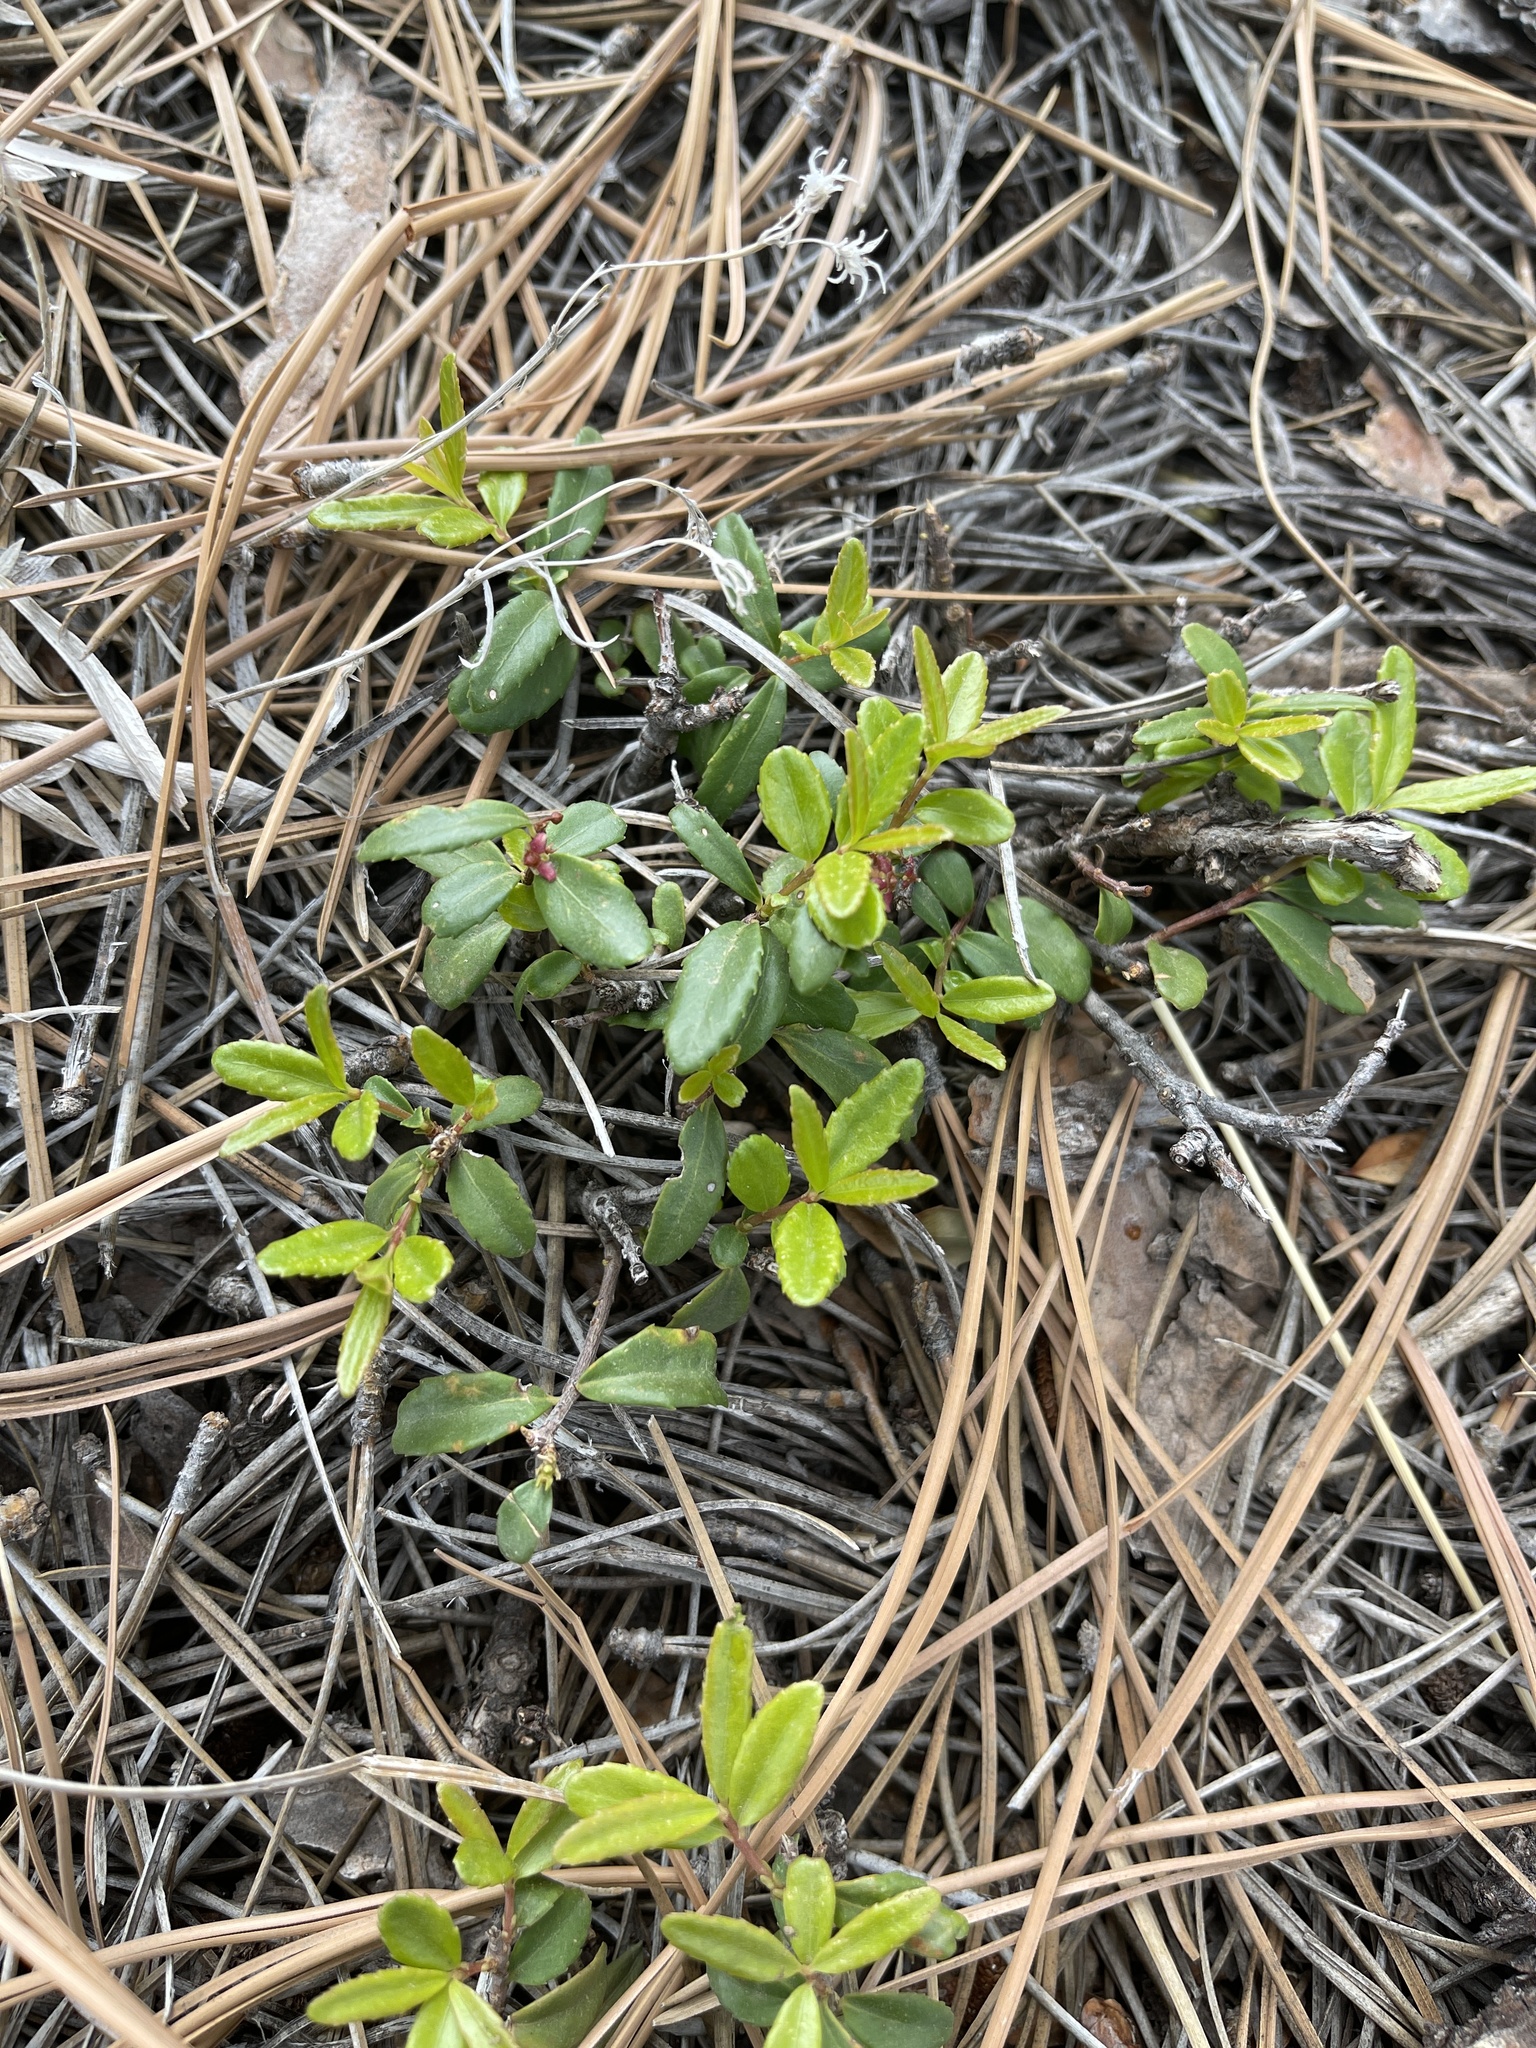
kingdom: Plantae
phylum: Tracheophyta
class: Magnoliopsida
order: Celastrales
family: Celastraceae
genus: Paxistima
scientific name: Paxistima myrsinites
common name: Mountain-lover
